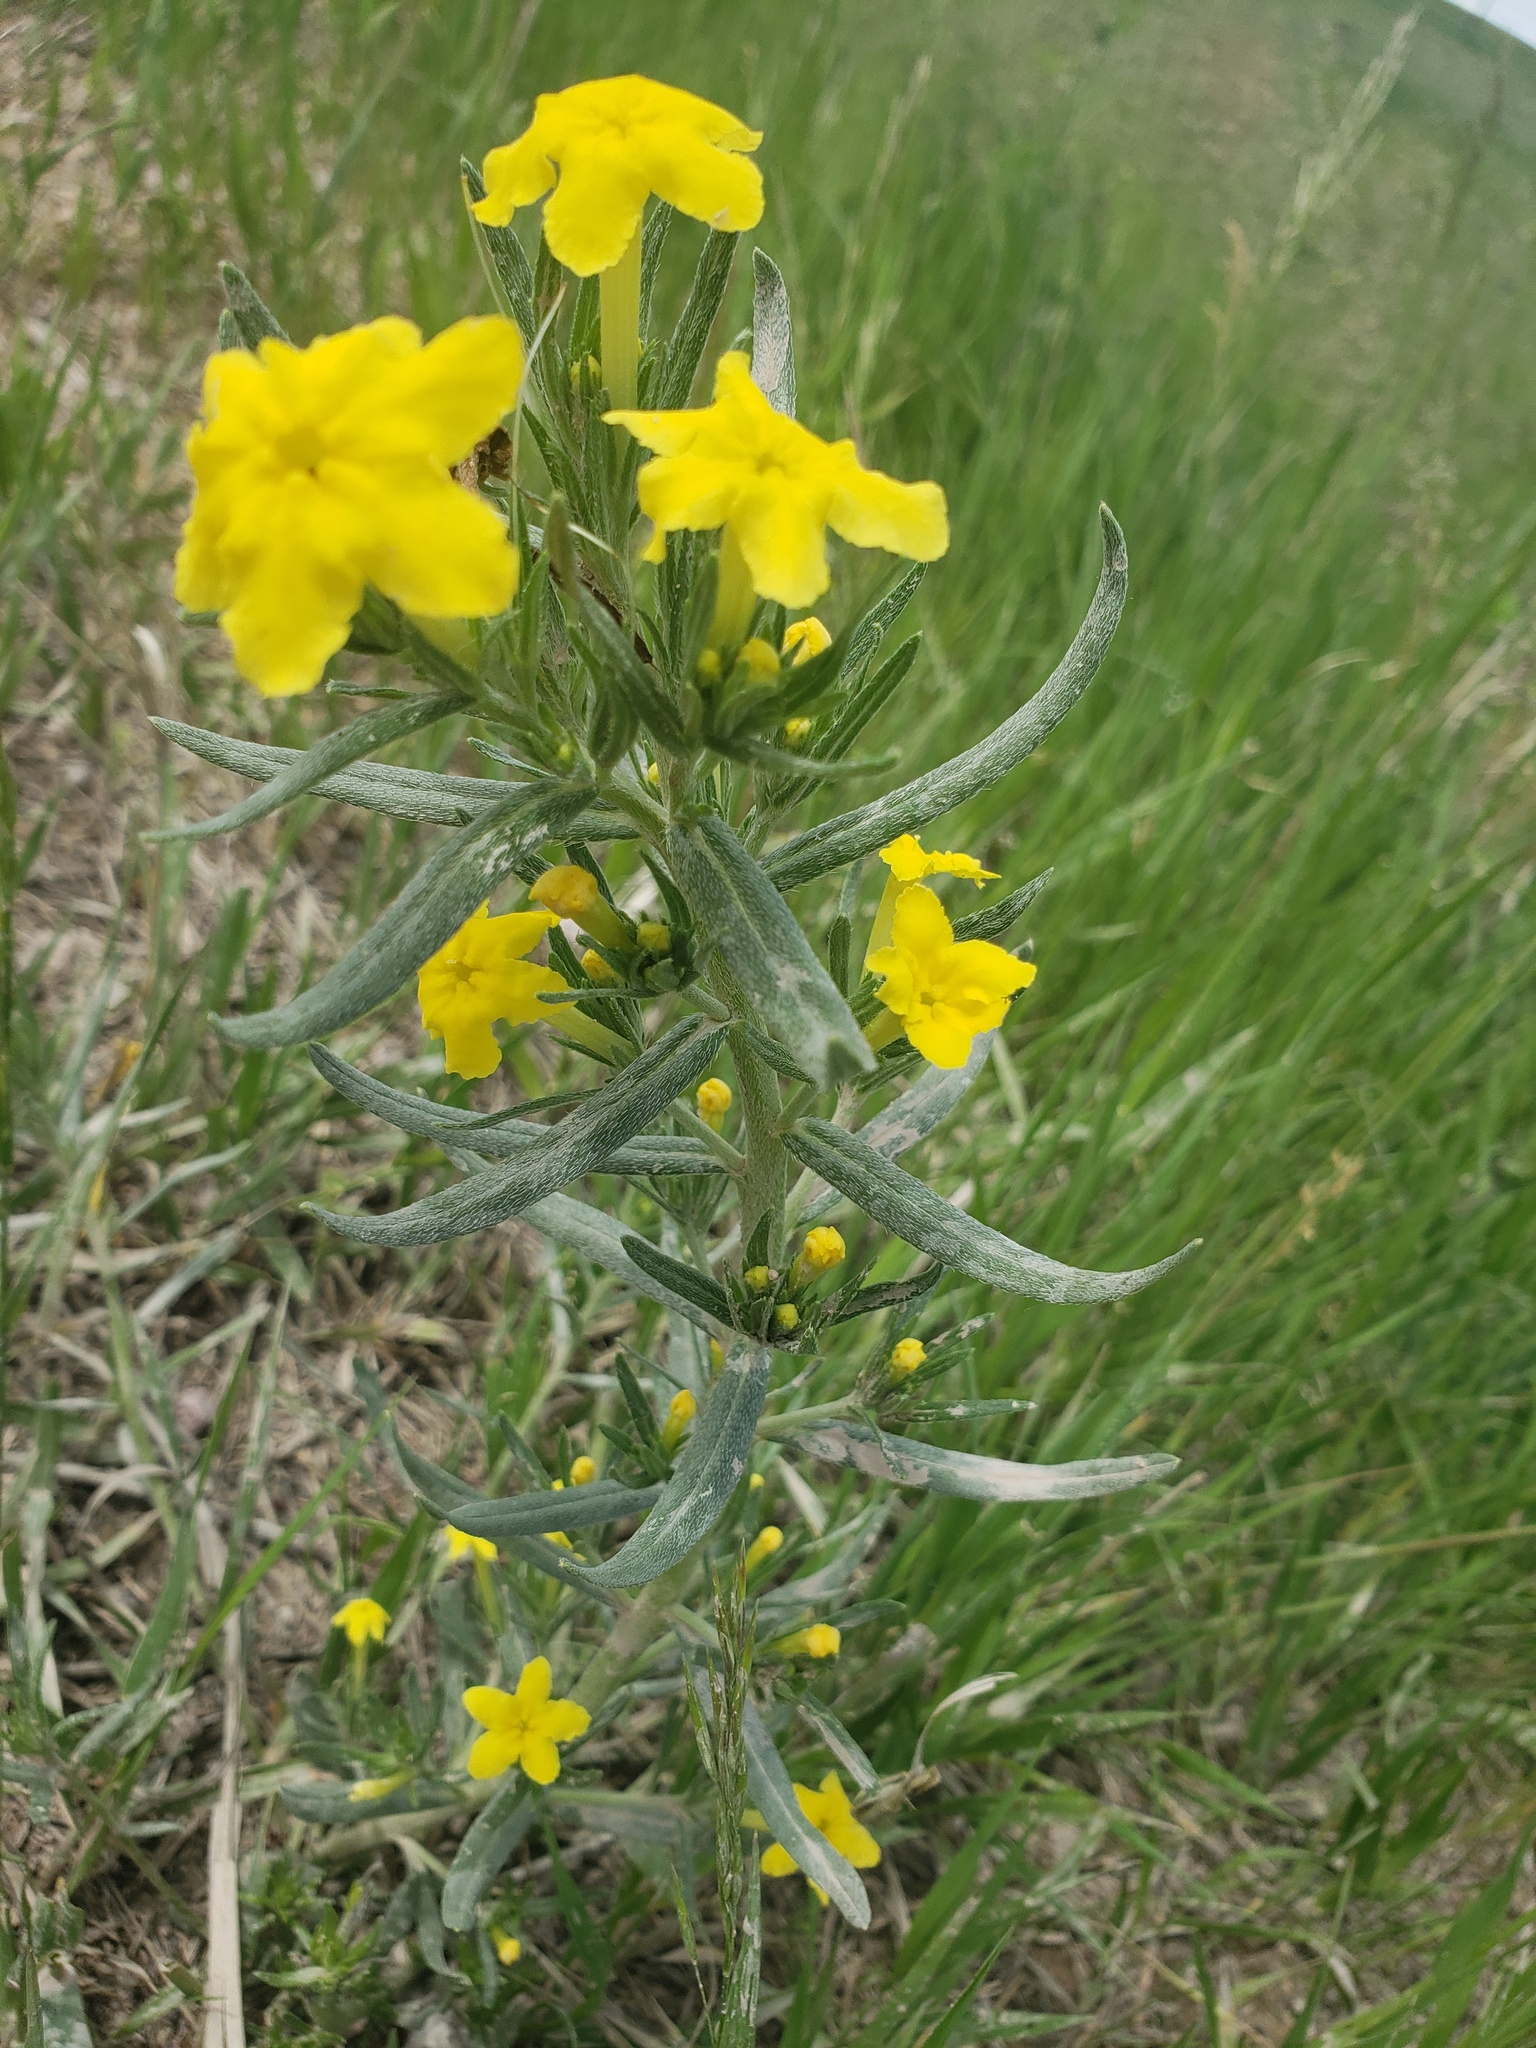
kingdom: Plantae
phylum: Tracheophyta
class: Magnoliopsida
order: Boraginales
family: Boraginaceae
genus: Lithospermum
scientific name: Lithospermum caroliniense
